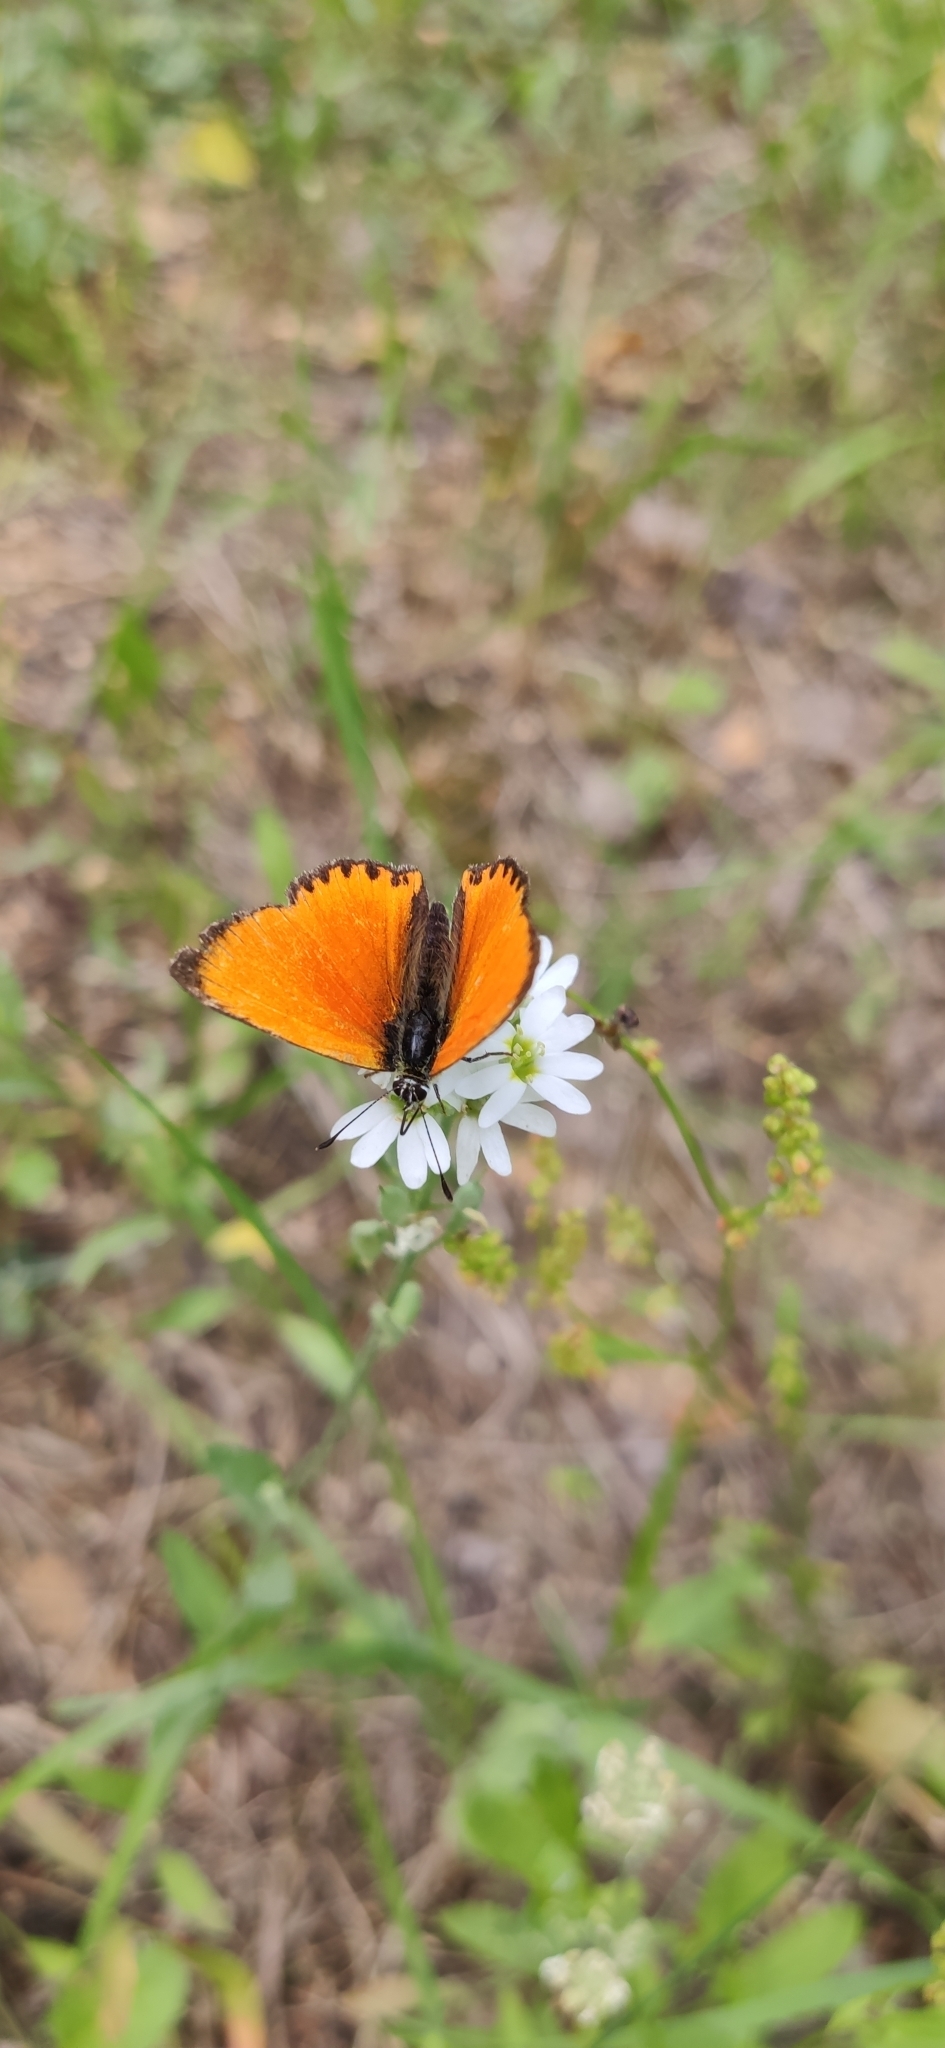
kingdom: Animalia
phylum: Arthropoda
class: Insecta
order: Lepidoptera
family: Lycaenidae
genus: Lycaena
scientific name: Lycaena virgaureae
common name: Scarce copper
